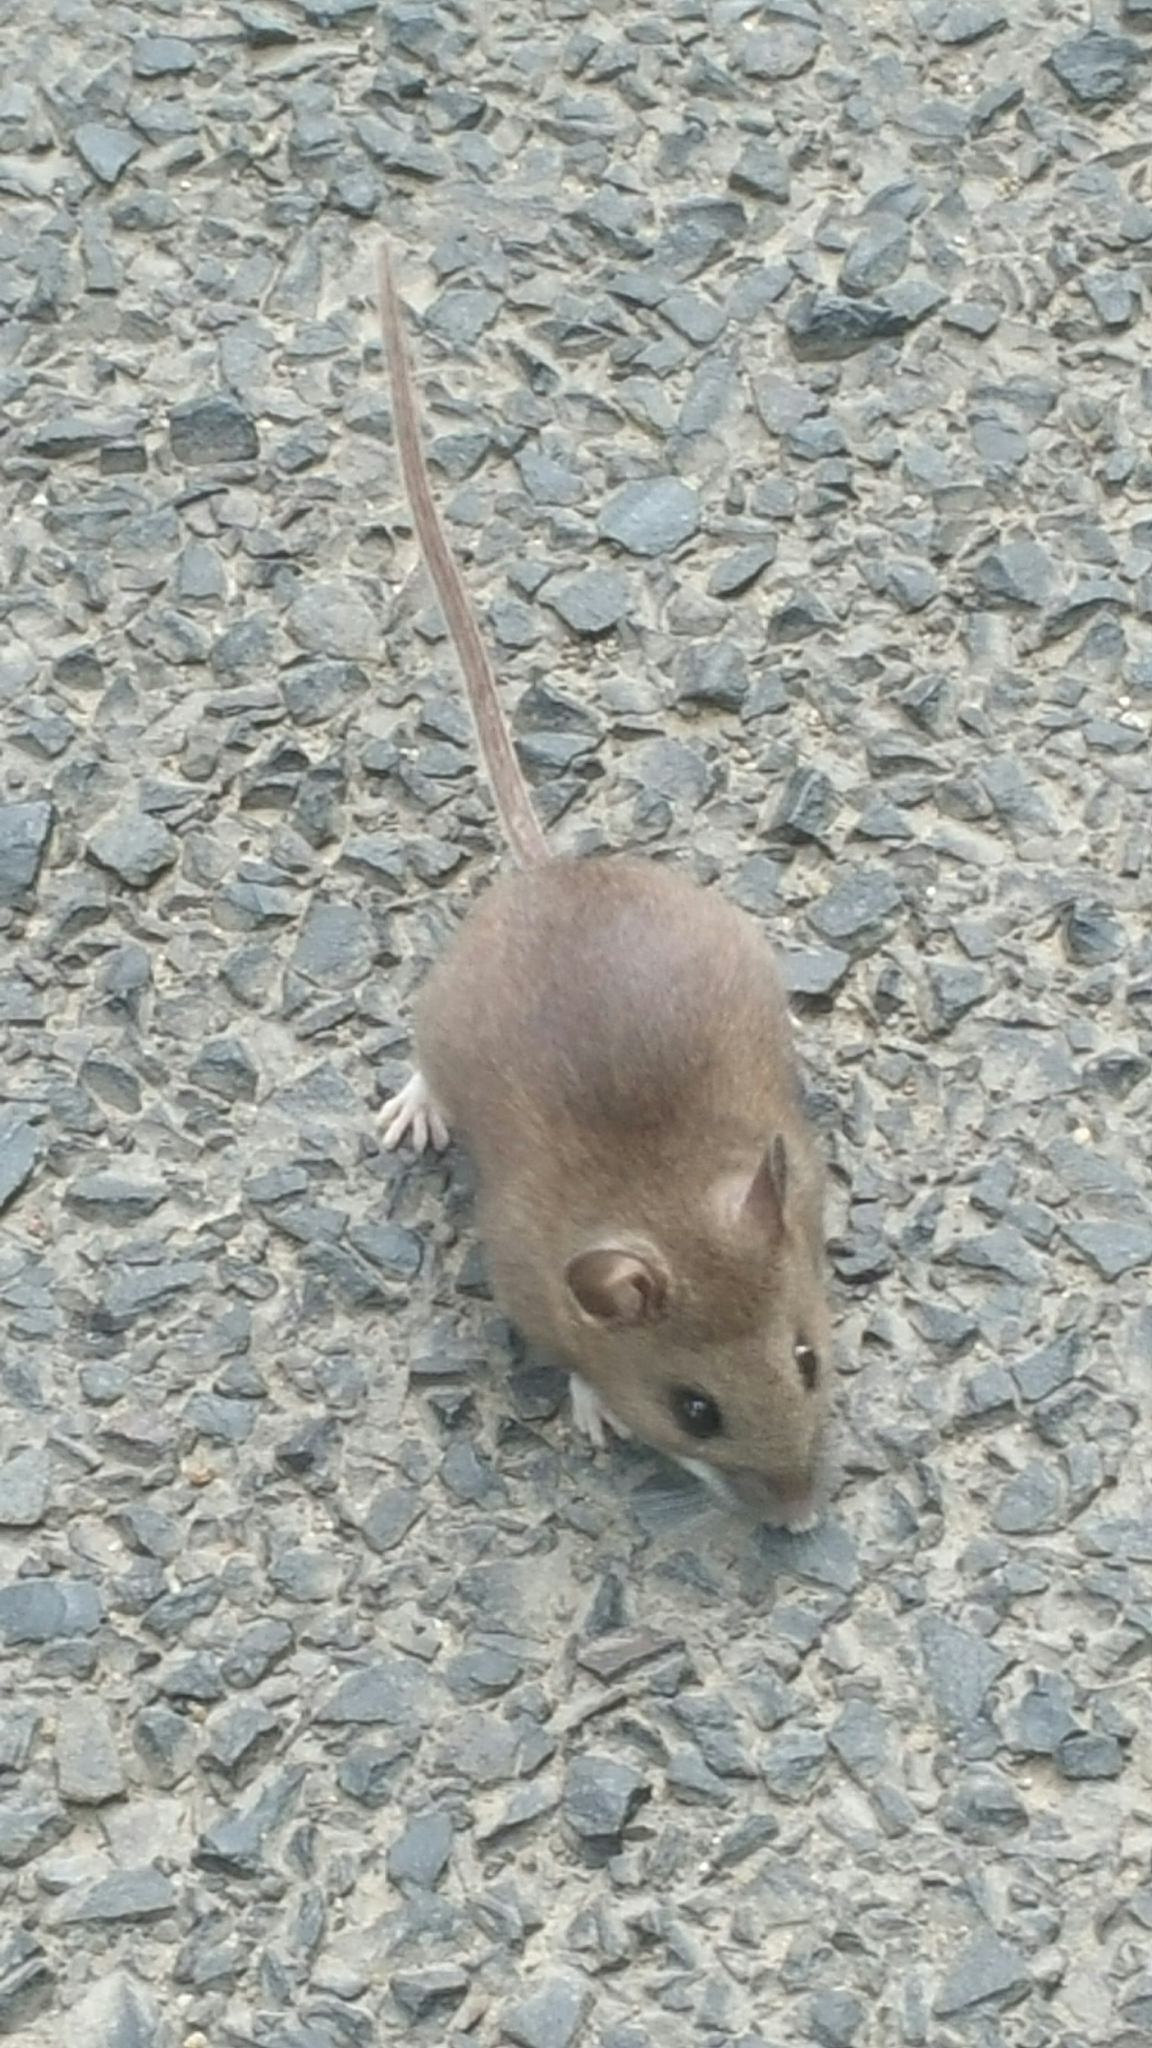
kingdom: Animalia
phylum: Chordata
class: Mammalia
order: Rodentia
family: Cricetidae
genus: Peromyscus
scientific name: Peromyscus maniculatus
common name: Deer mouse
